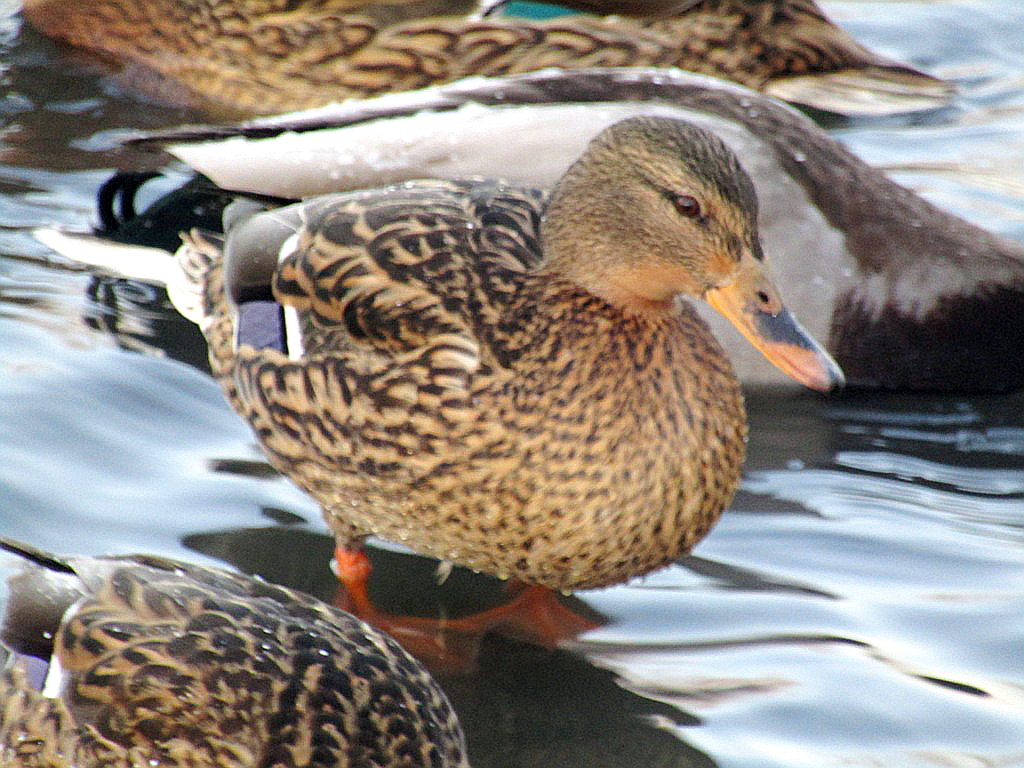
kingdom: Animalia
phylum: Chordata
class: Aves
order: Anseriformes
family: Anatidae
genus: Anas
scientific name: Anas platyrhynchos
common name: Mallard
